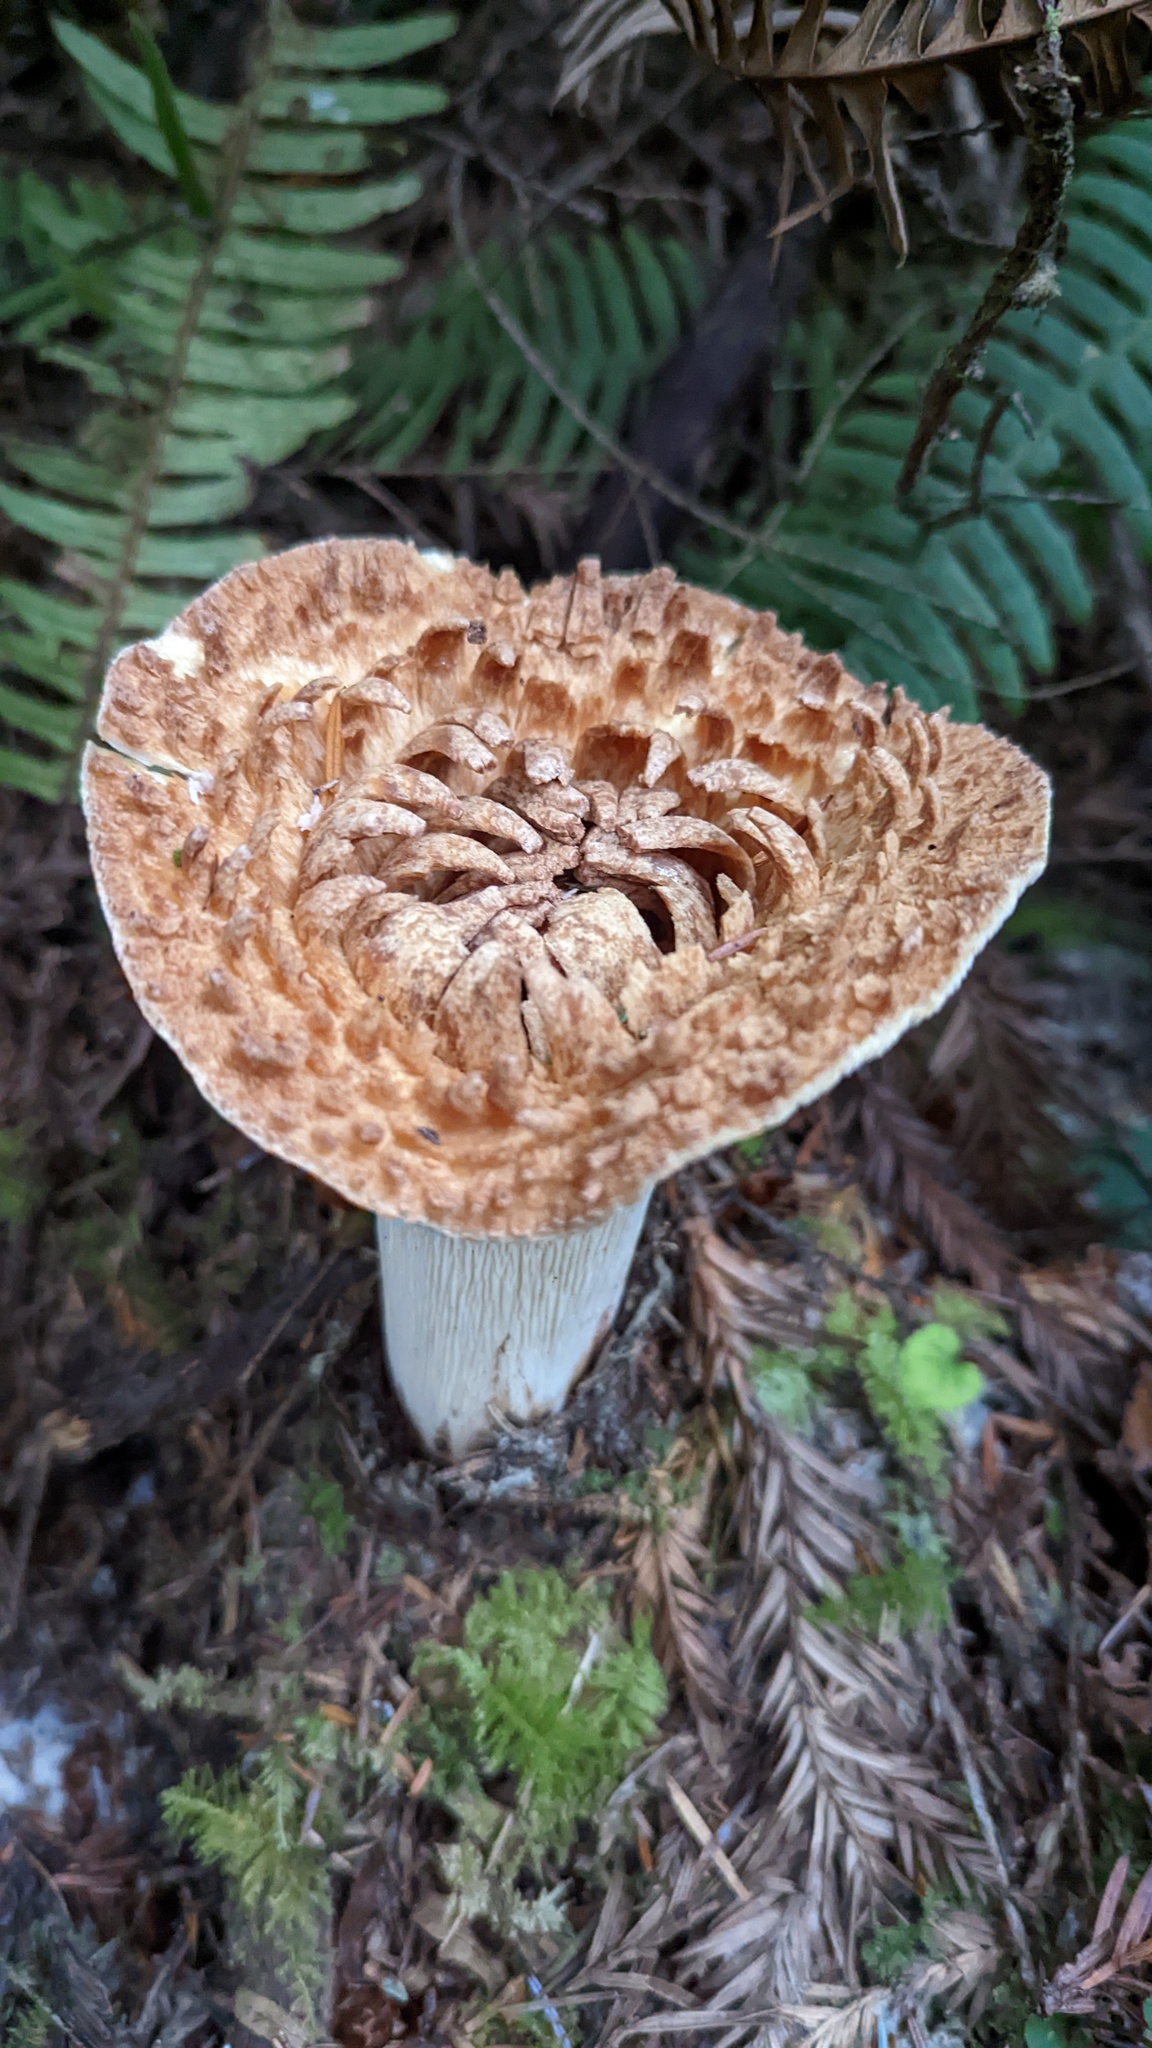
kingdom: Fungi
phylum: Basidiomycota
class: Agaricomycetes
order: Gomphales
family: Gomphaceae
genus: Turbinellus
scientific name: Turbinellus kauffmanii
